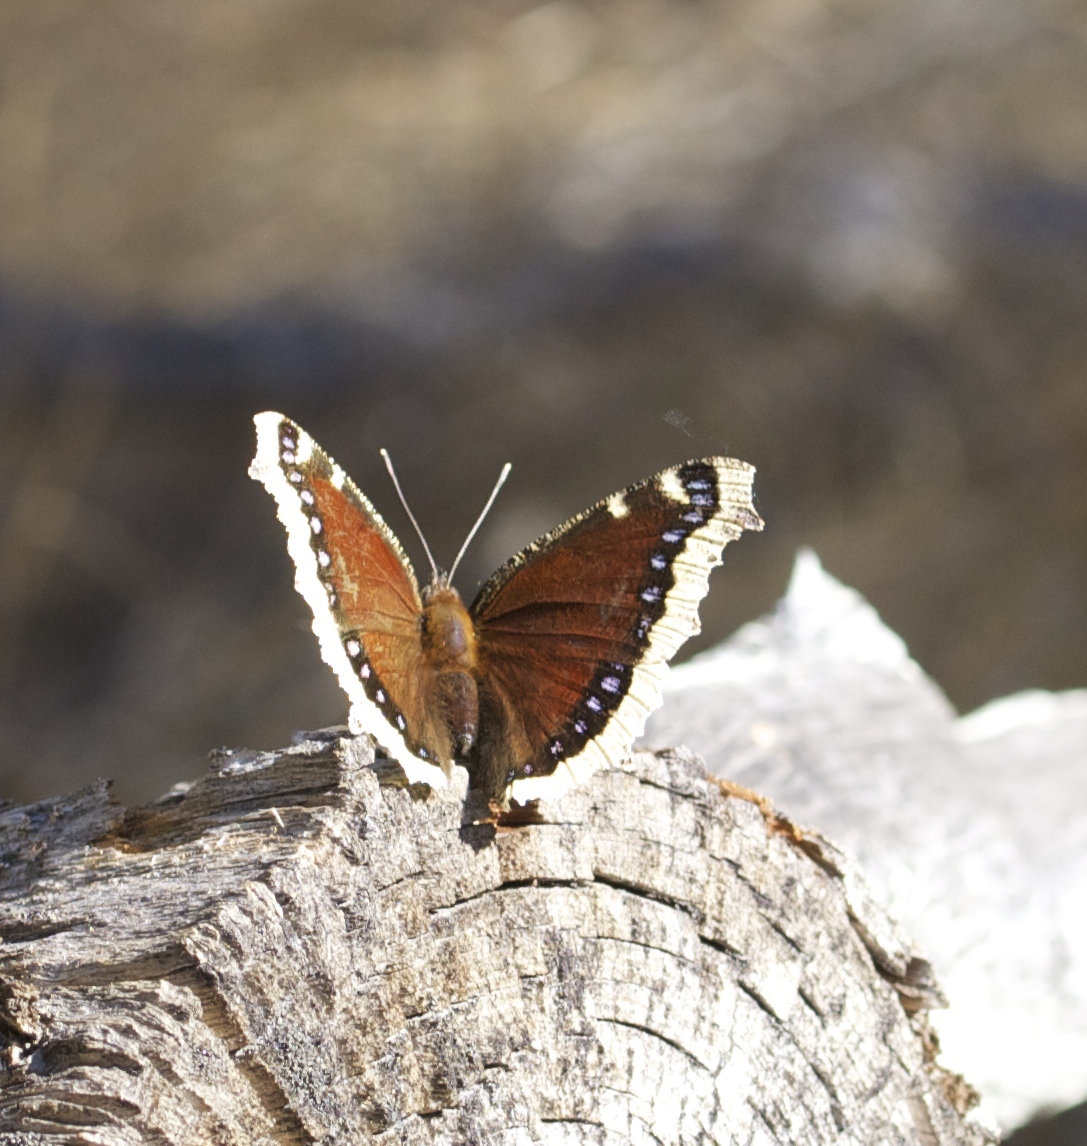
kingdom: Animalia
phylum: Arthropoda
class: Insecta
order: Lepidoptera
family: Nymphalidae
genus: Nymphalis
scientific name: Nymphalis antiopa
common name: Camberwell beauty
